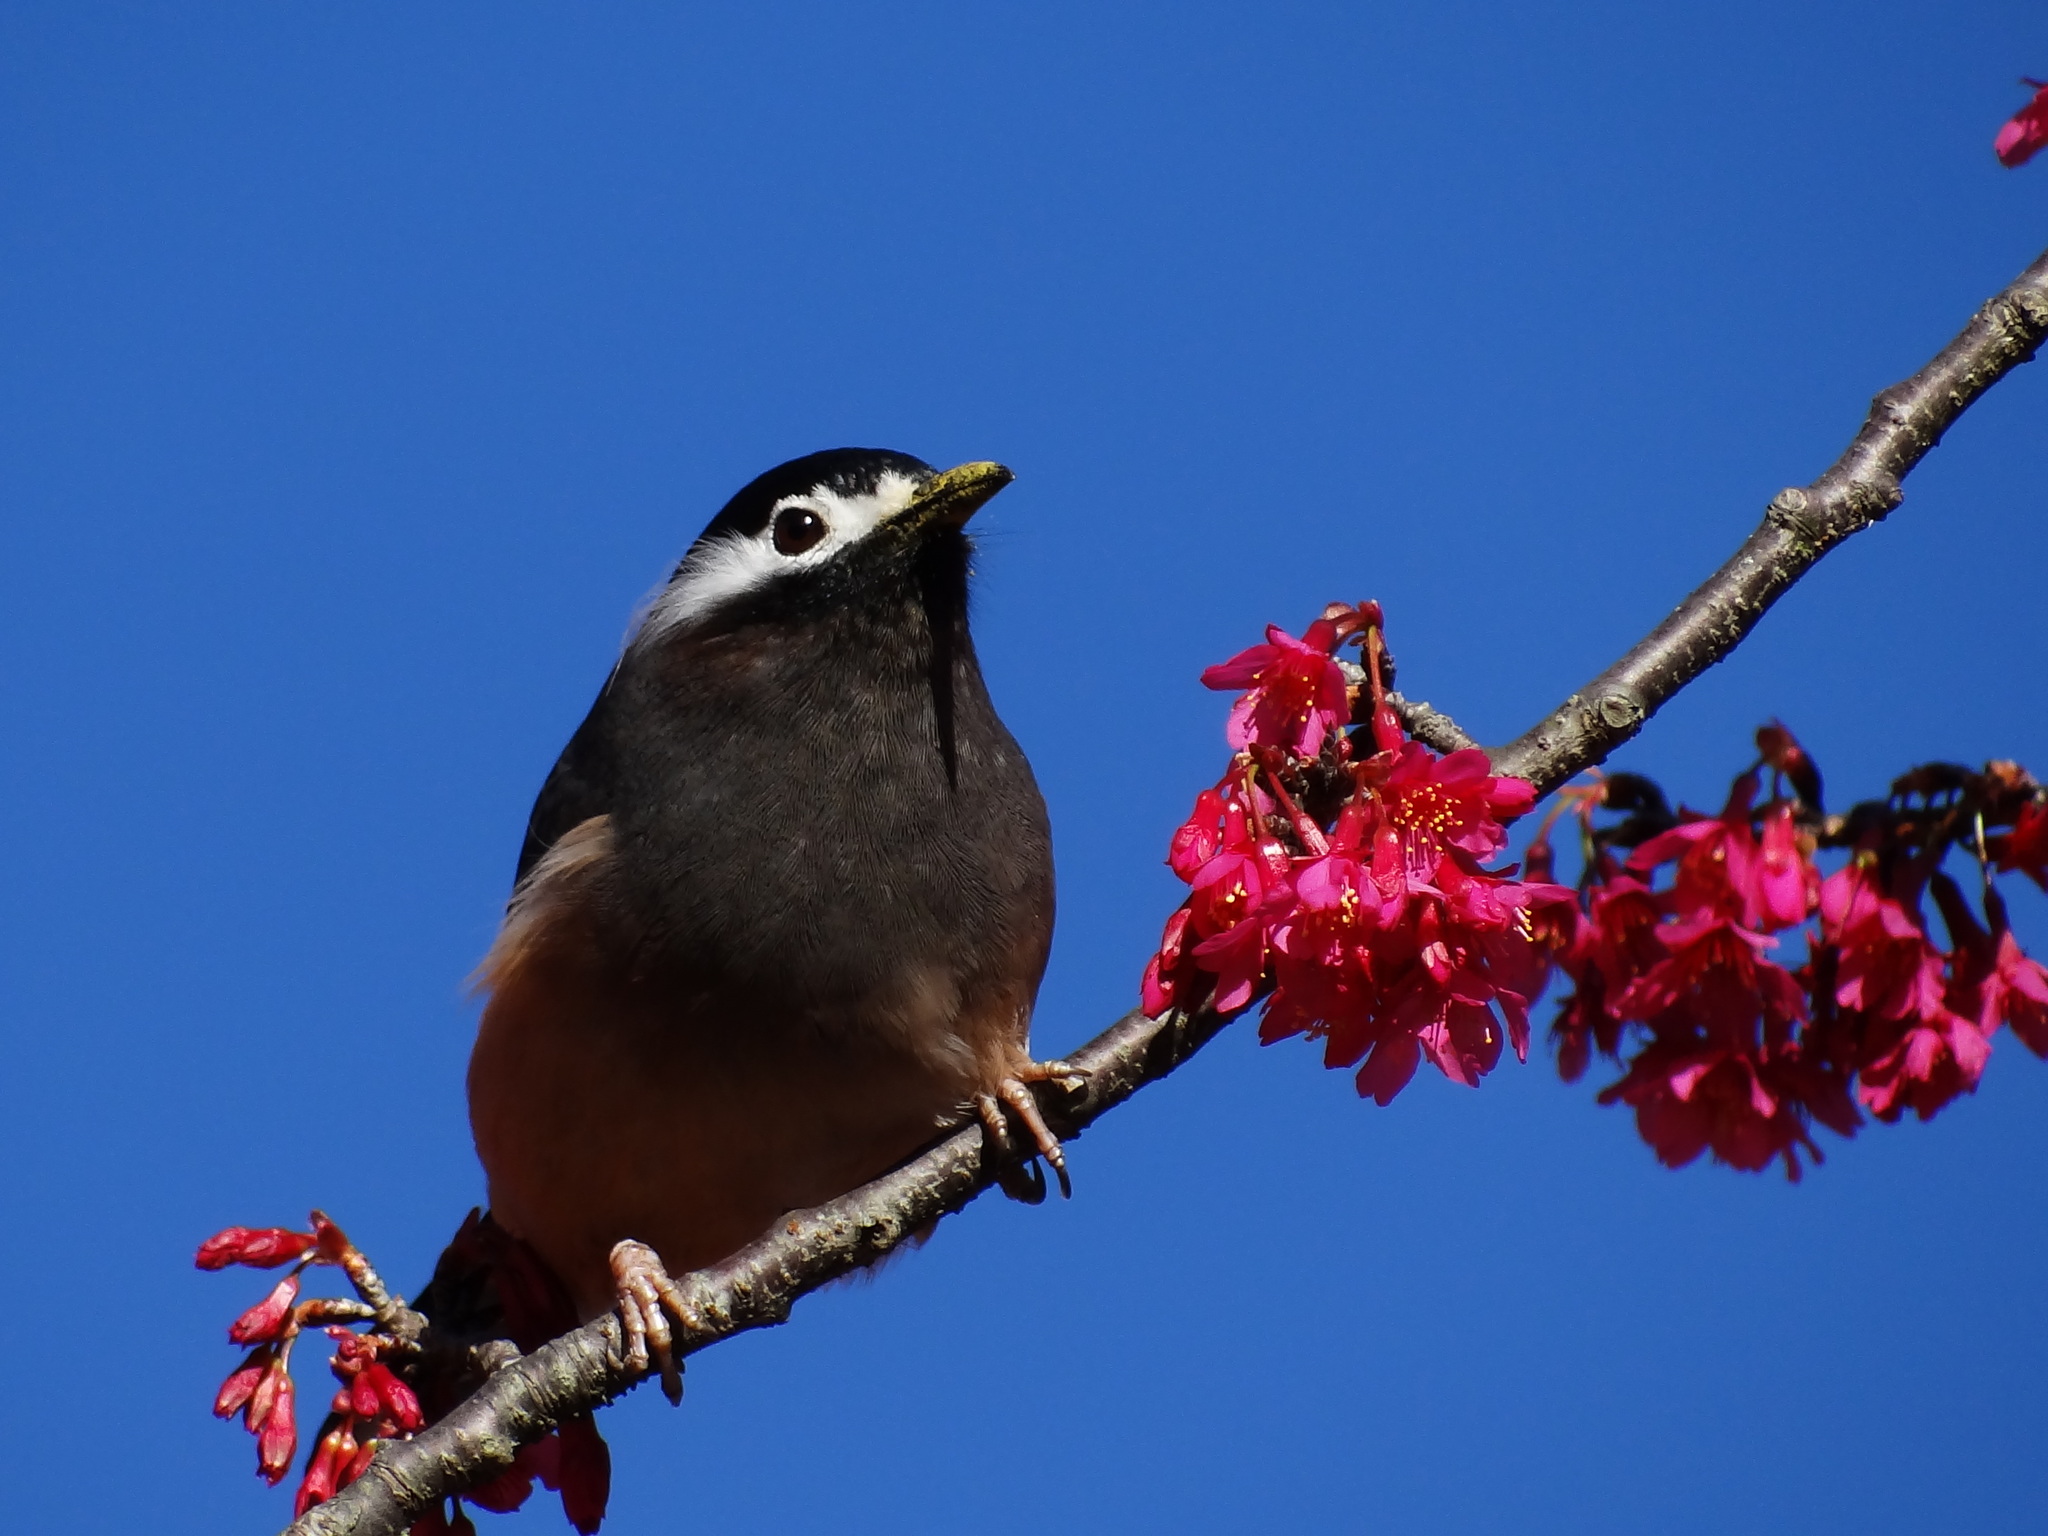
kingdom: Animalia
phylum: Chordata
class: Aves
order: Passeriformes
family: Leiothrichidae
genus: Heterophasia
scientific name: Heterophasia auricularis
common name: White-eared sibia
